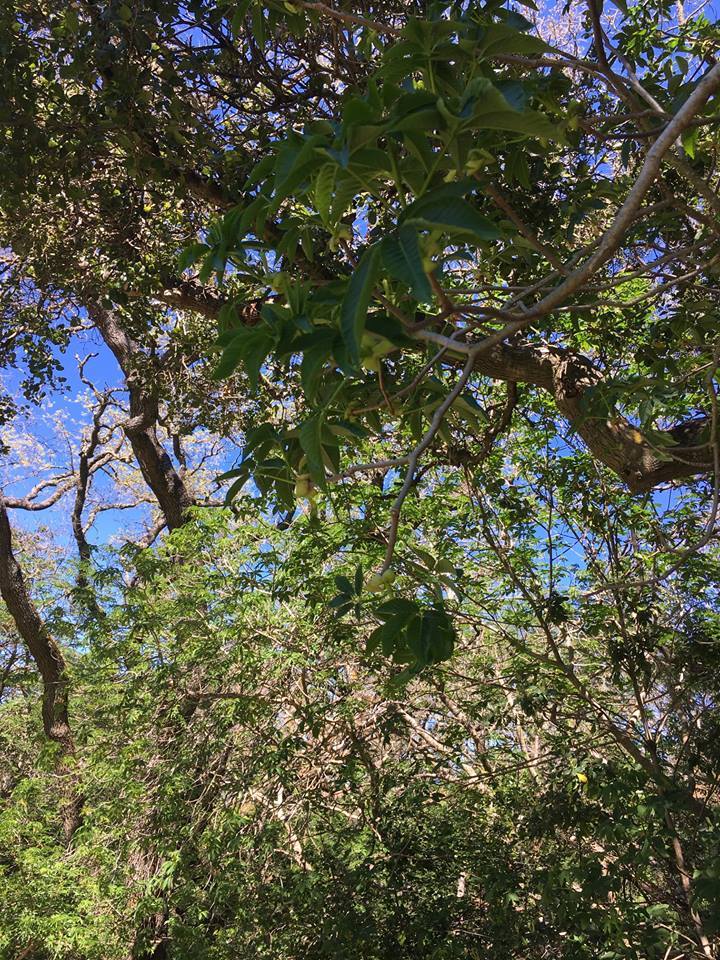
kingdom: Plantae
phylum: Tracheophyta
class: Magnoliopsida
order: Sapindales
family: Sapindaceae
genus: Aesculus
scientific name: Aesculus californica
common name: California buckeye
